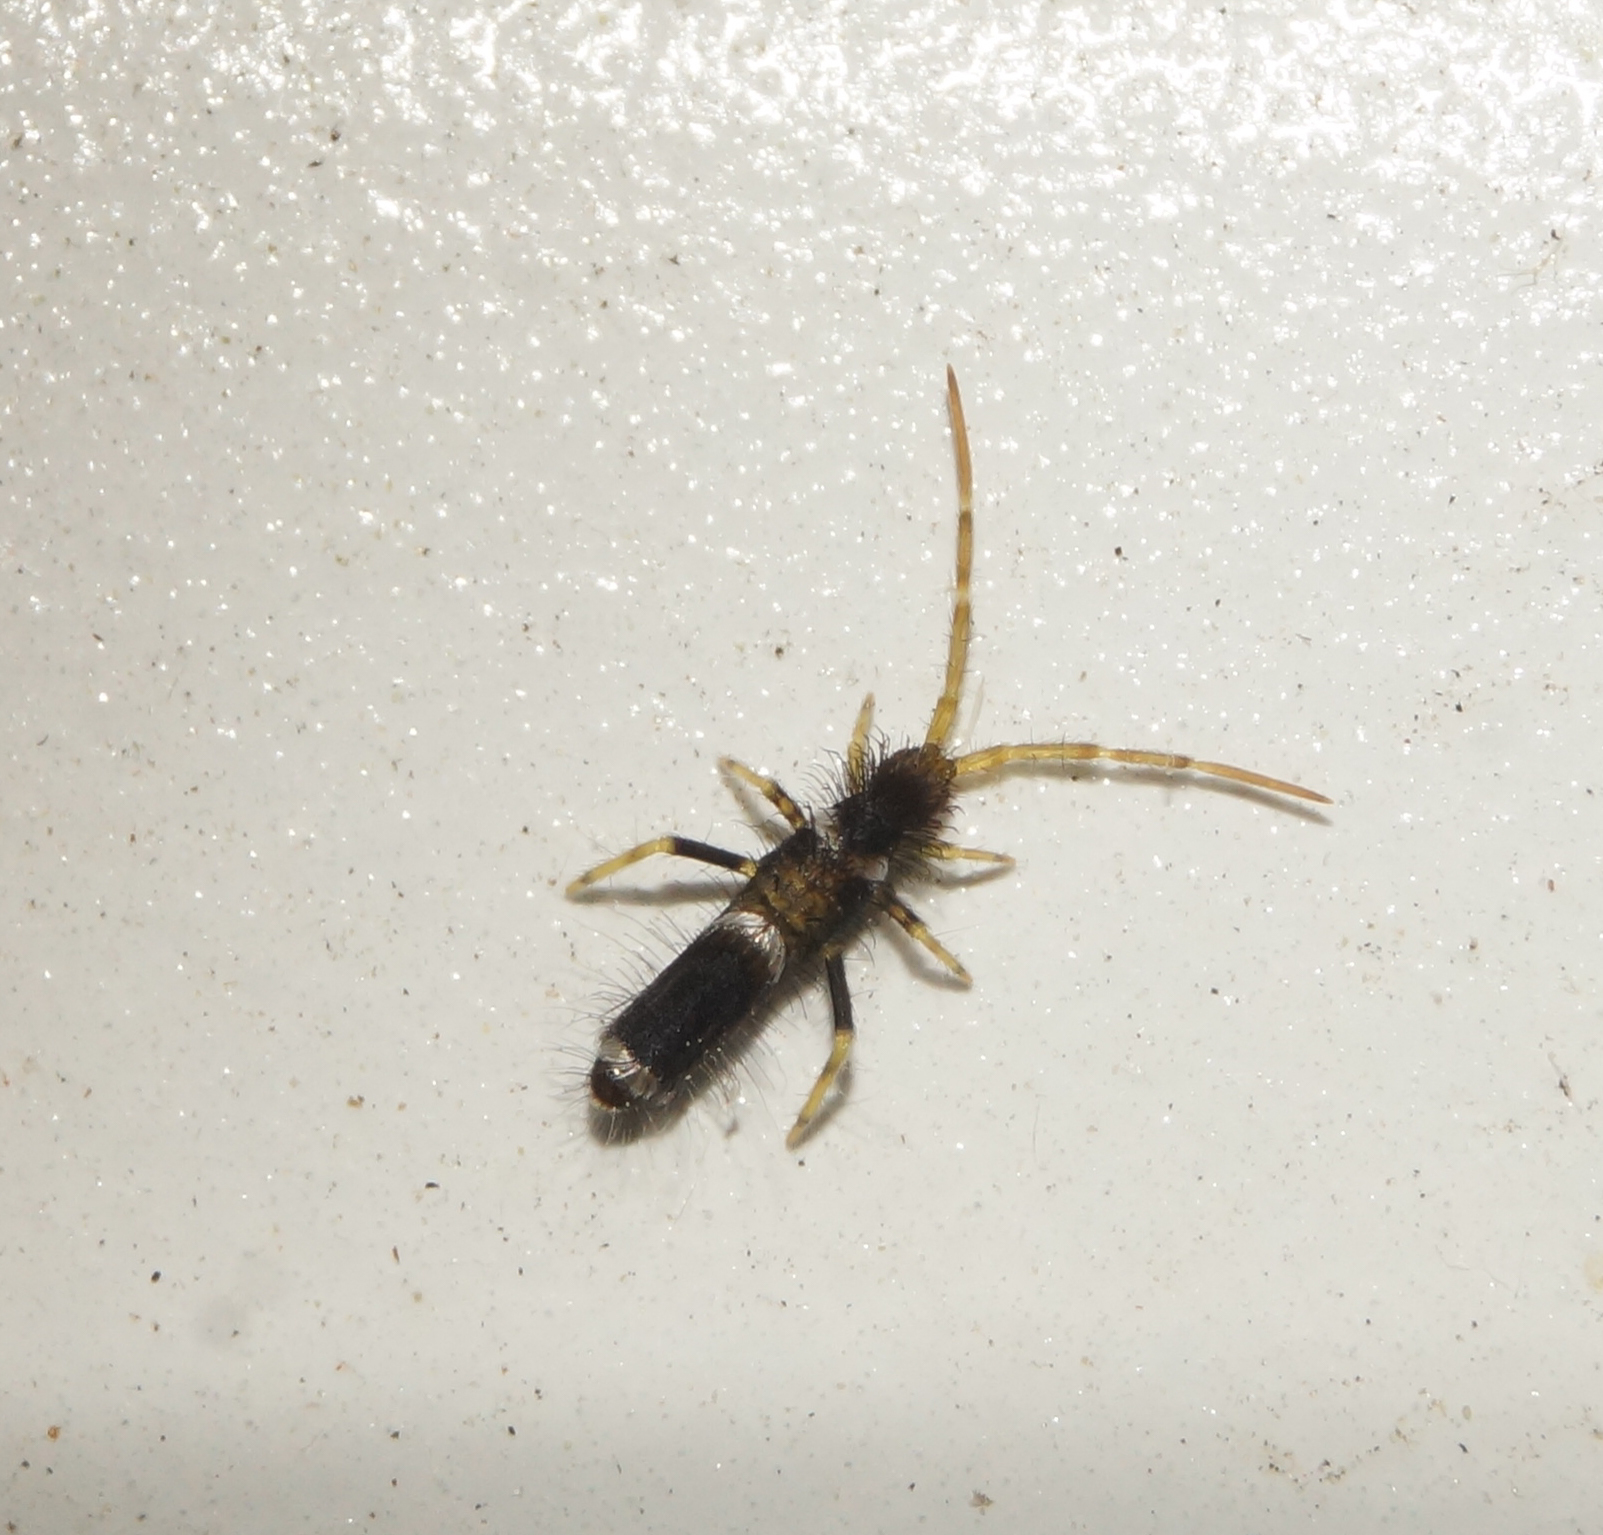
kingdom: Animalia
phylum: Arthropoda
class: Collembola
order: Entomobryomorpha
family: Entomobryidae
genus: Entomobrya
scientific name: Entomobrya dorsalis
